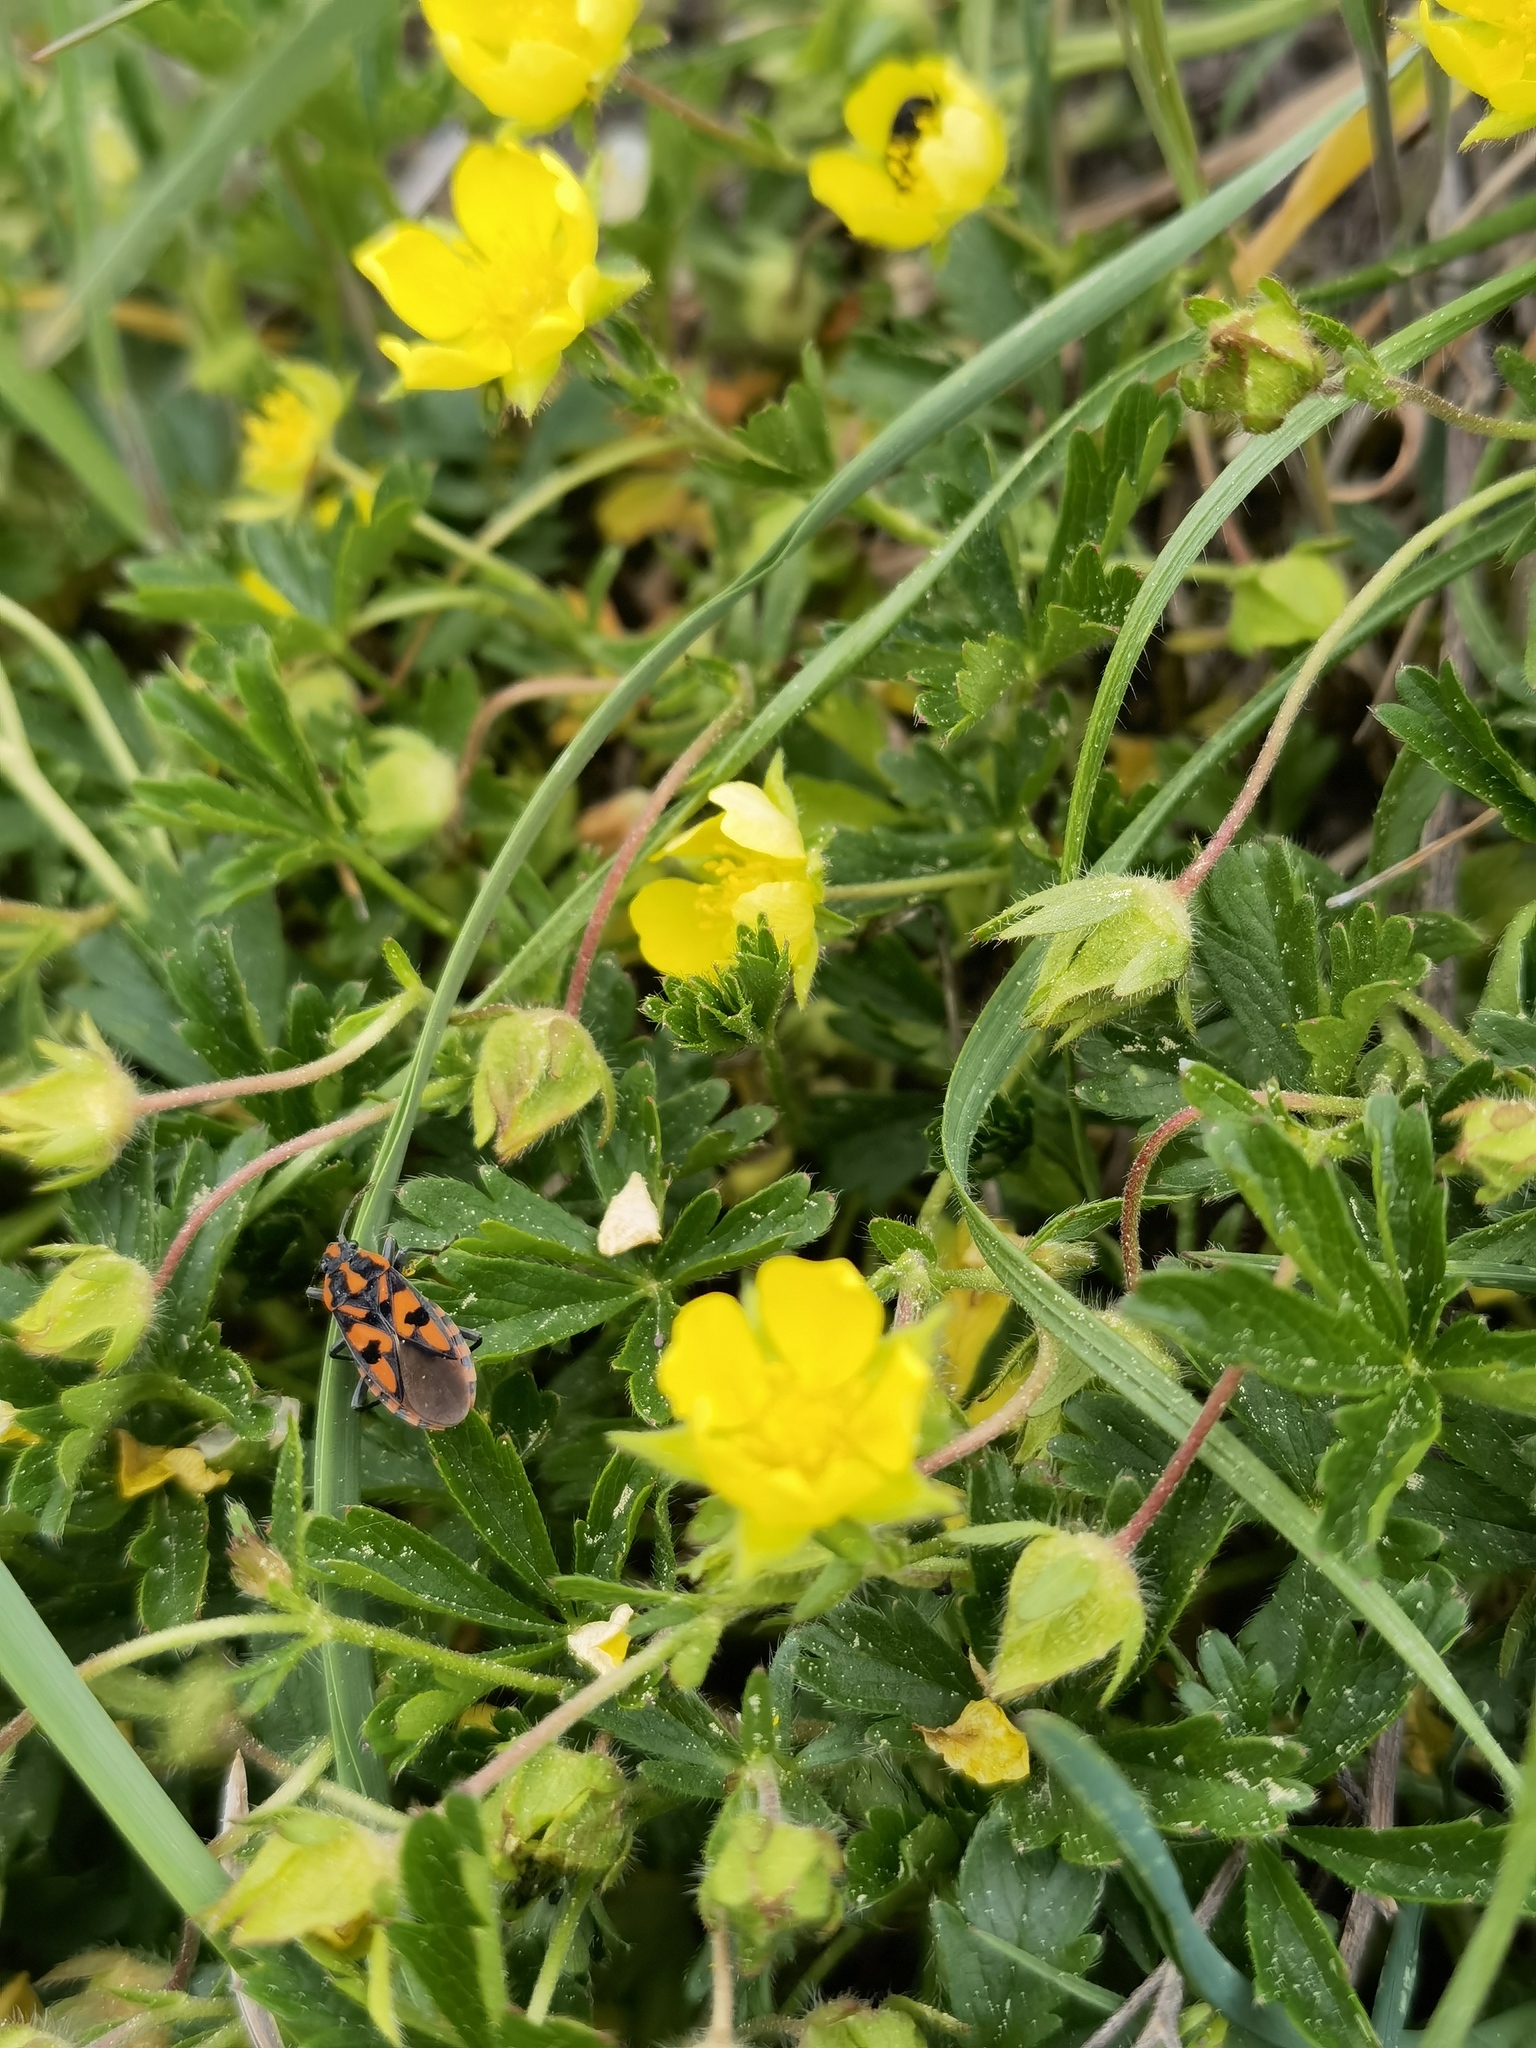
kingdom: Animalia
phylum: Arthropoda
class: Insecta
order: Hemiptera
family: Lygaeidae
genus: Spilostethus
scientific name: Spilostethus saxatilis
